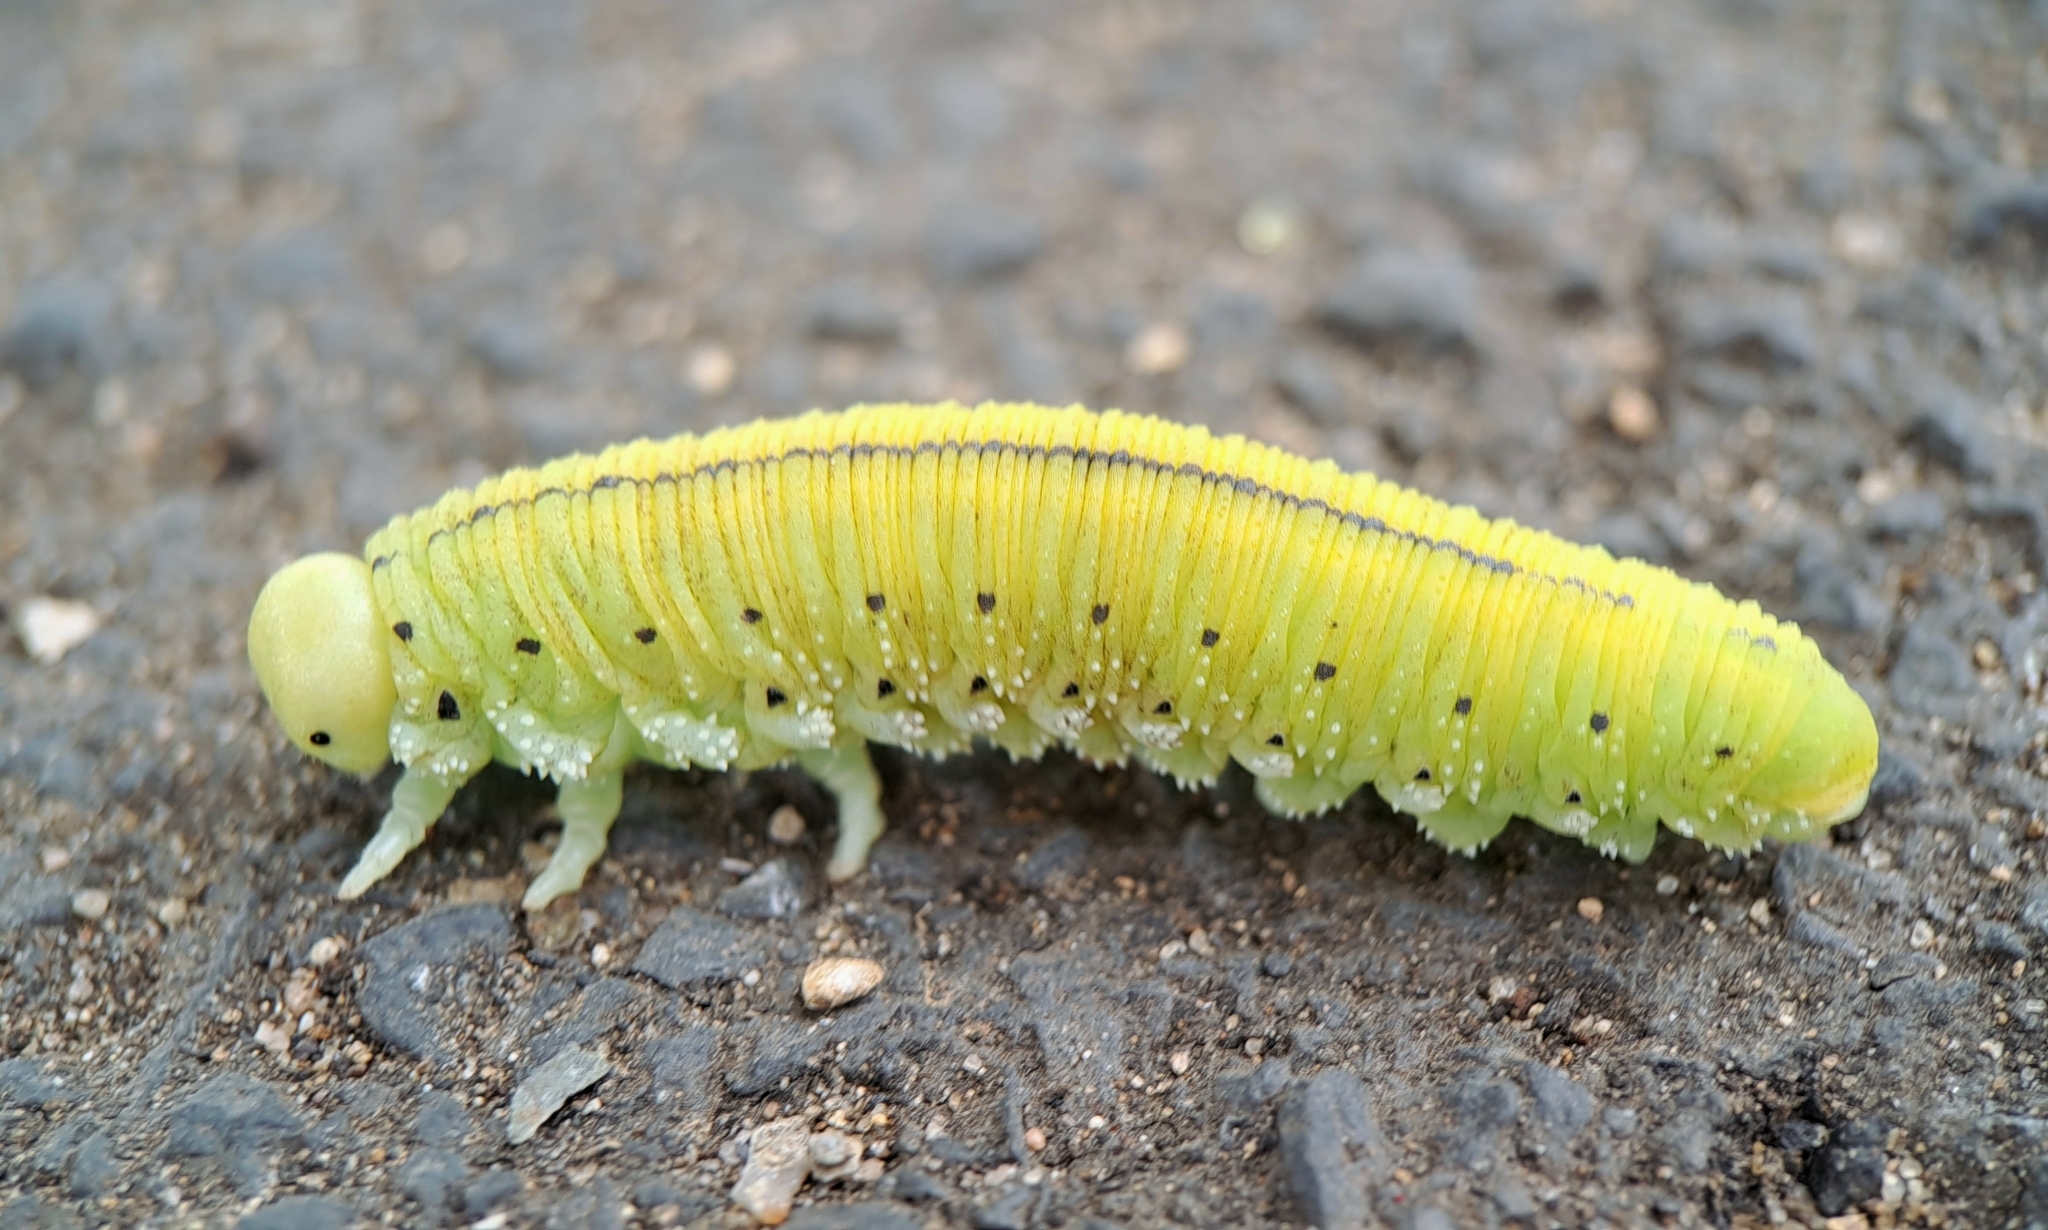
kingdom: Animalia
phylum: Arthropoda
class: Insecta
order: Hymenoptera
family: Cimbicidae
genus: Cimbex
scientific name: Cimbex connatus
